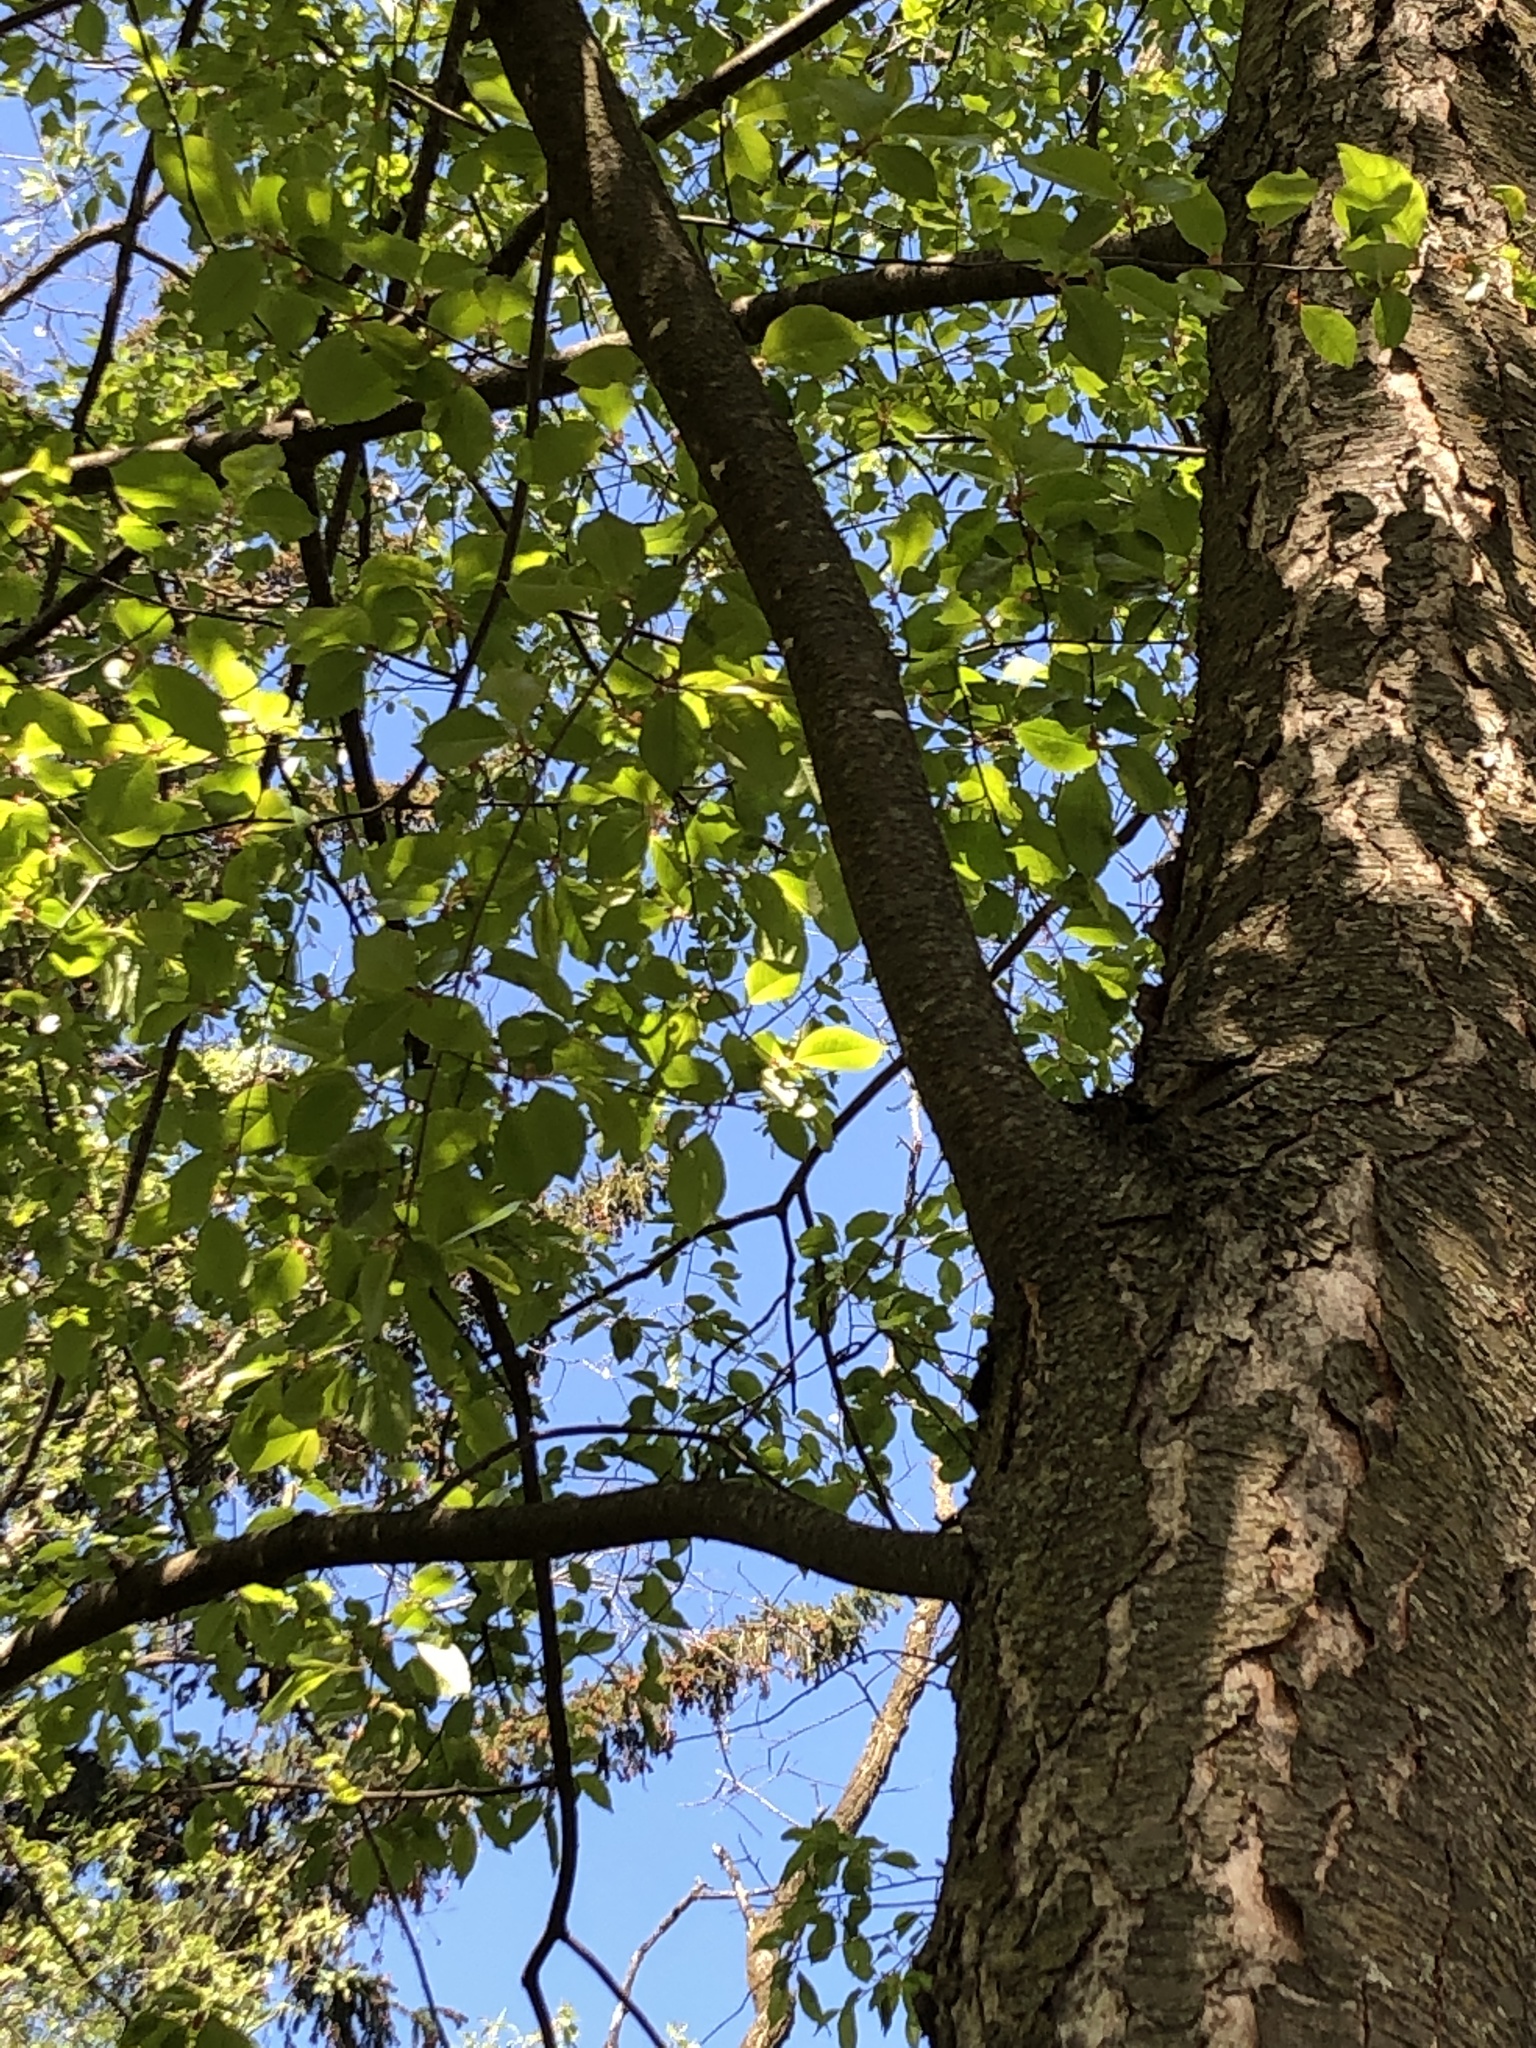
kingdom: Plantae
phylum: Tracheophyta
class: Magnoliopsida
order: Rosales
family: Rosaceae
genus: Prunus
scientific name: Prunus serotina
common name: Black cherry
